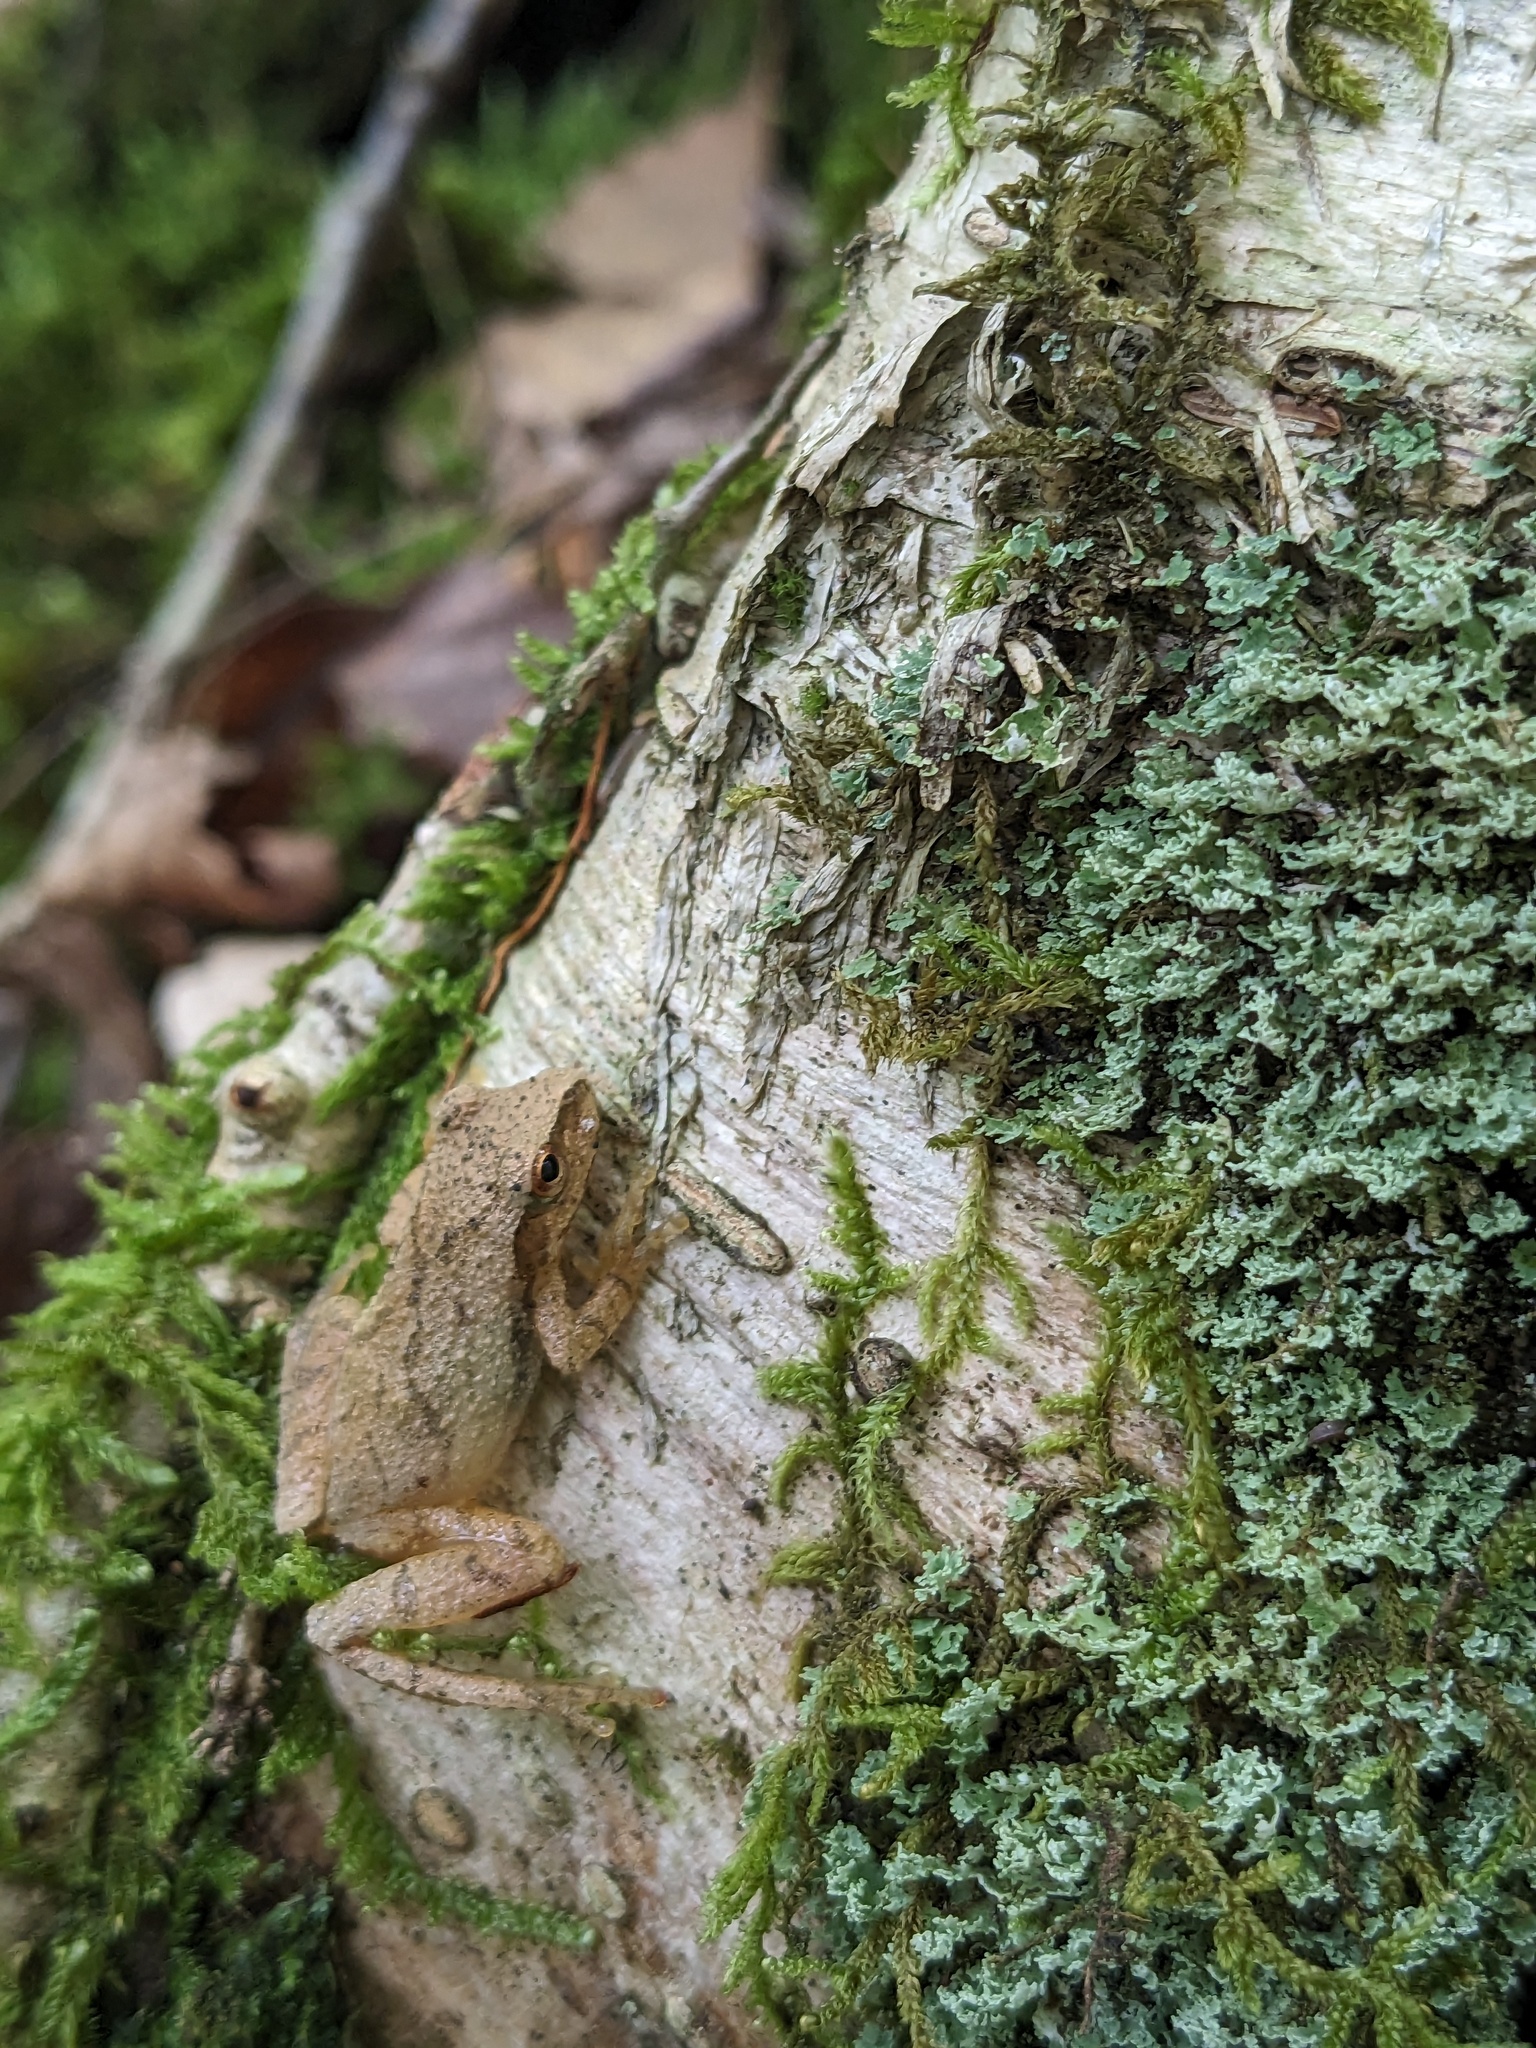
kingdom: Animalia
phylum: Chordata
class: Amphibia
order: Anura
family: Hylidae
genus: Pseudacris
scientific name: Pseudacris crucifer
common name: Spring peeper
